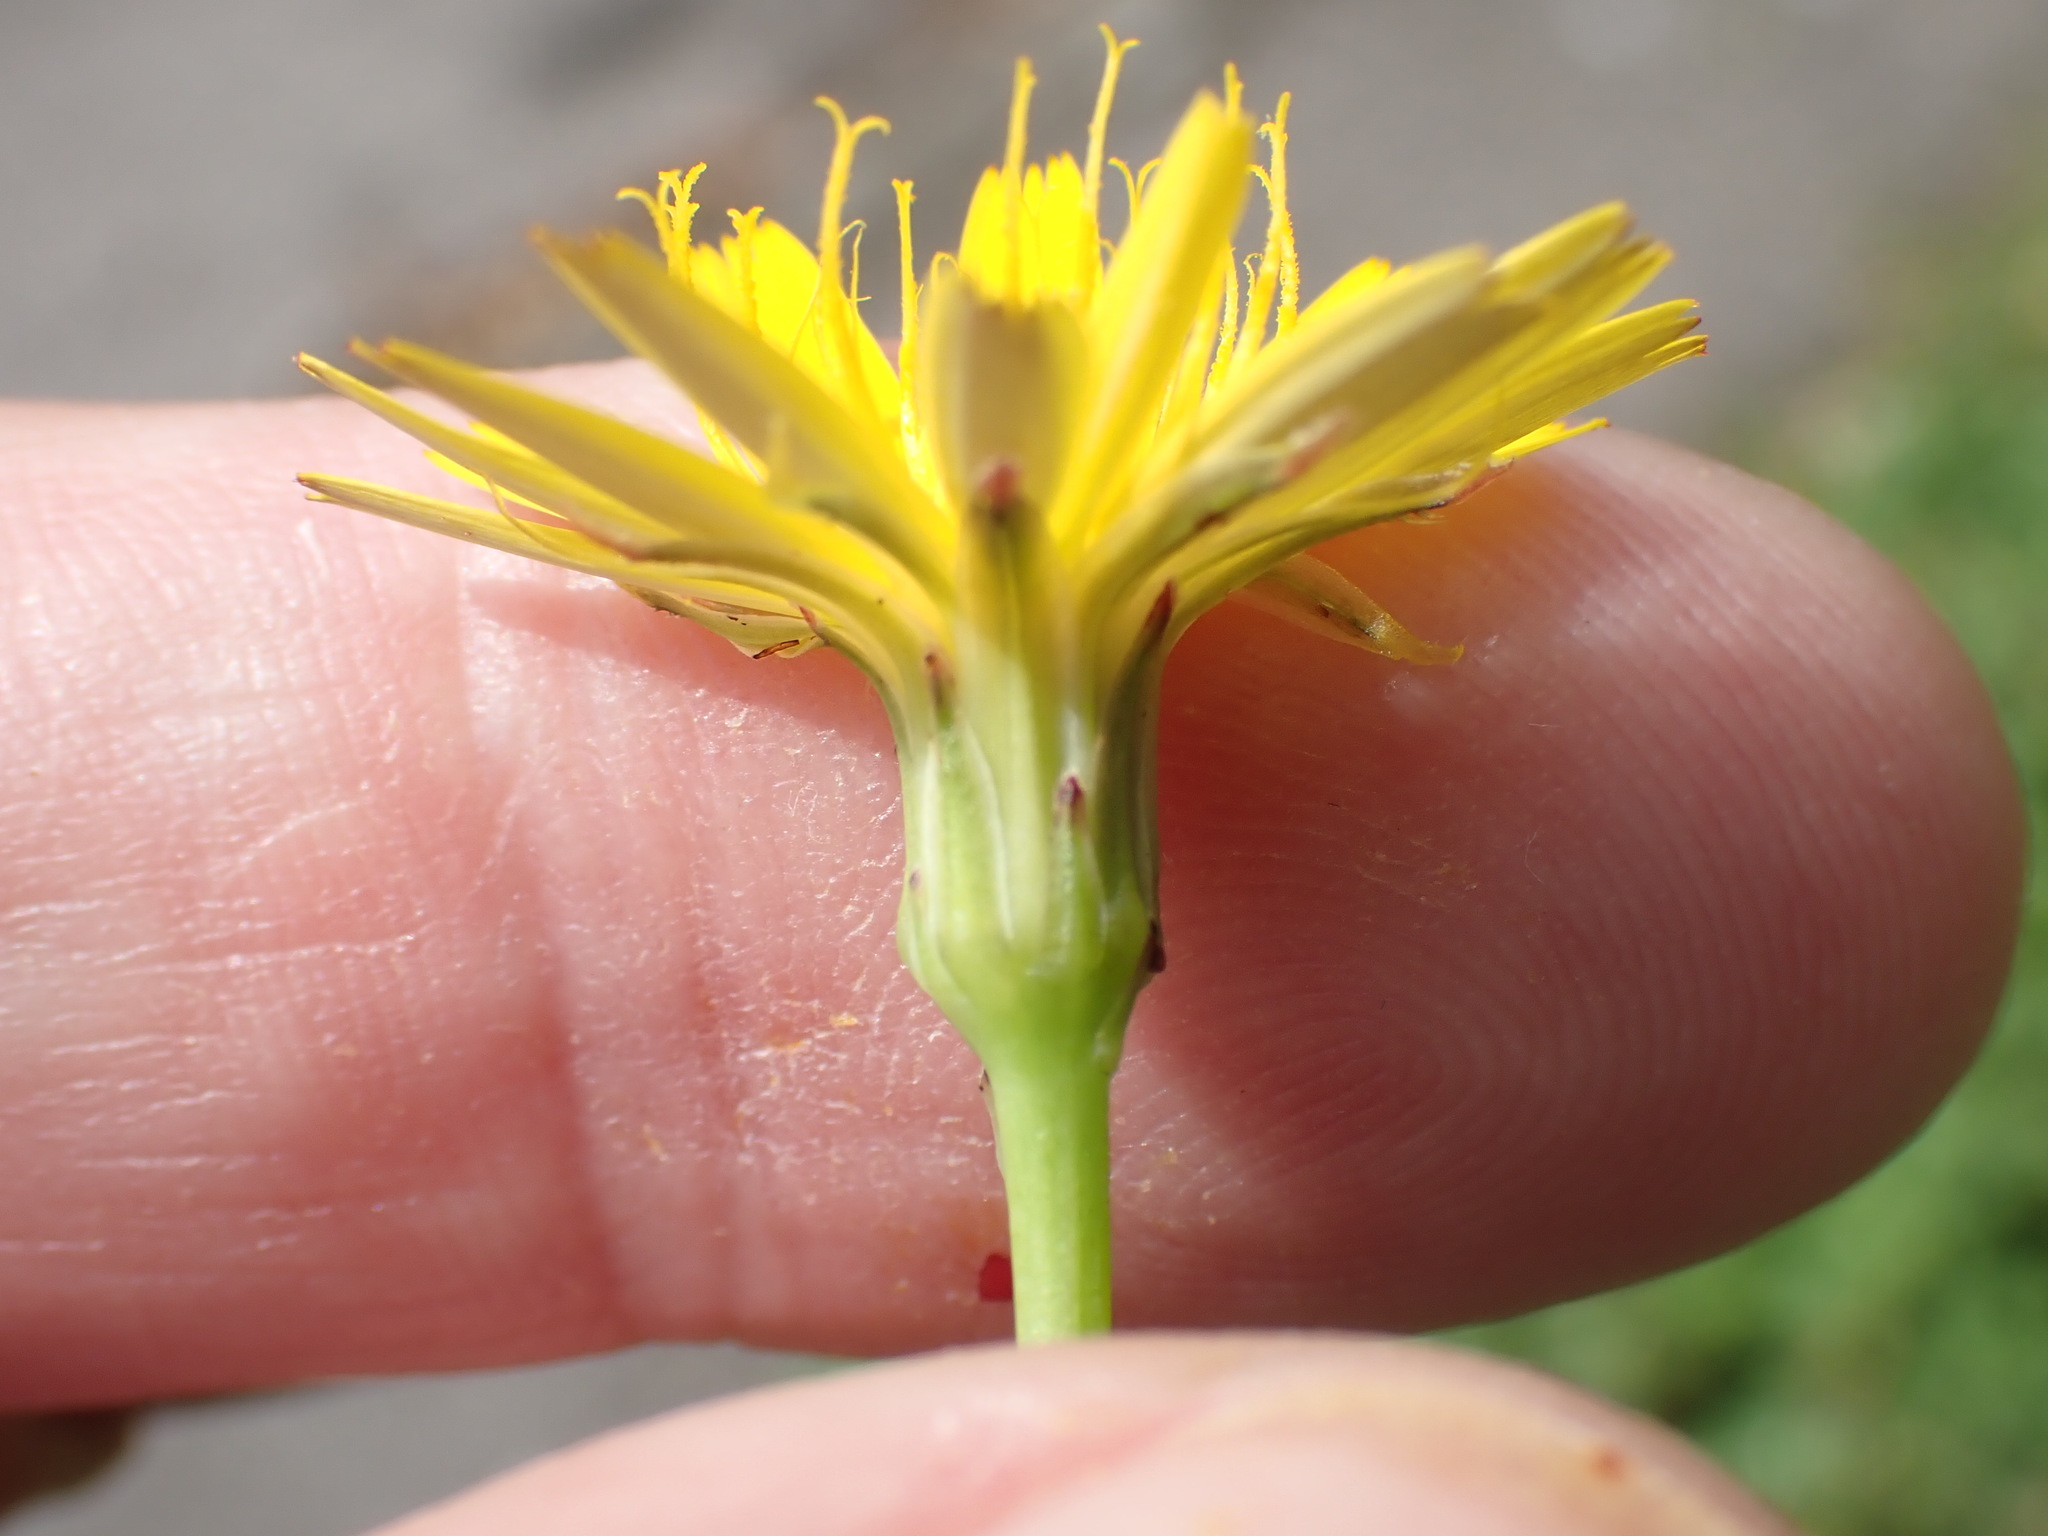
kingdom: Plantae
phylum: Tracheophyta
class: Magnoliopsida
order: Asterales
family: Asteraceae
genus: Hypochaeris
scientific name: Hypochaeris radicata
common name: Flatweed
